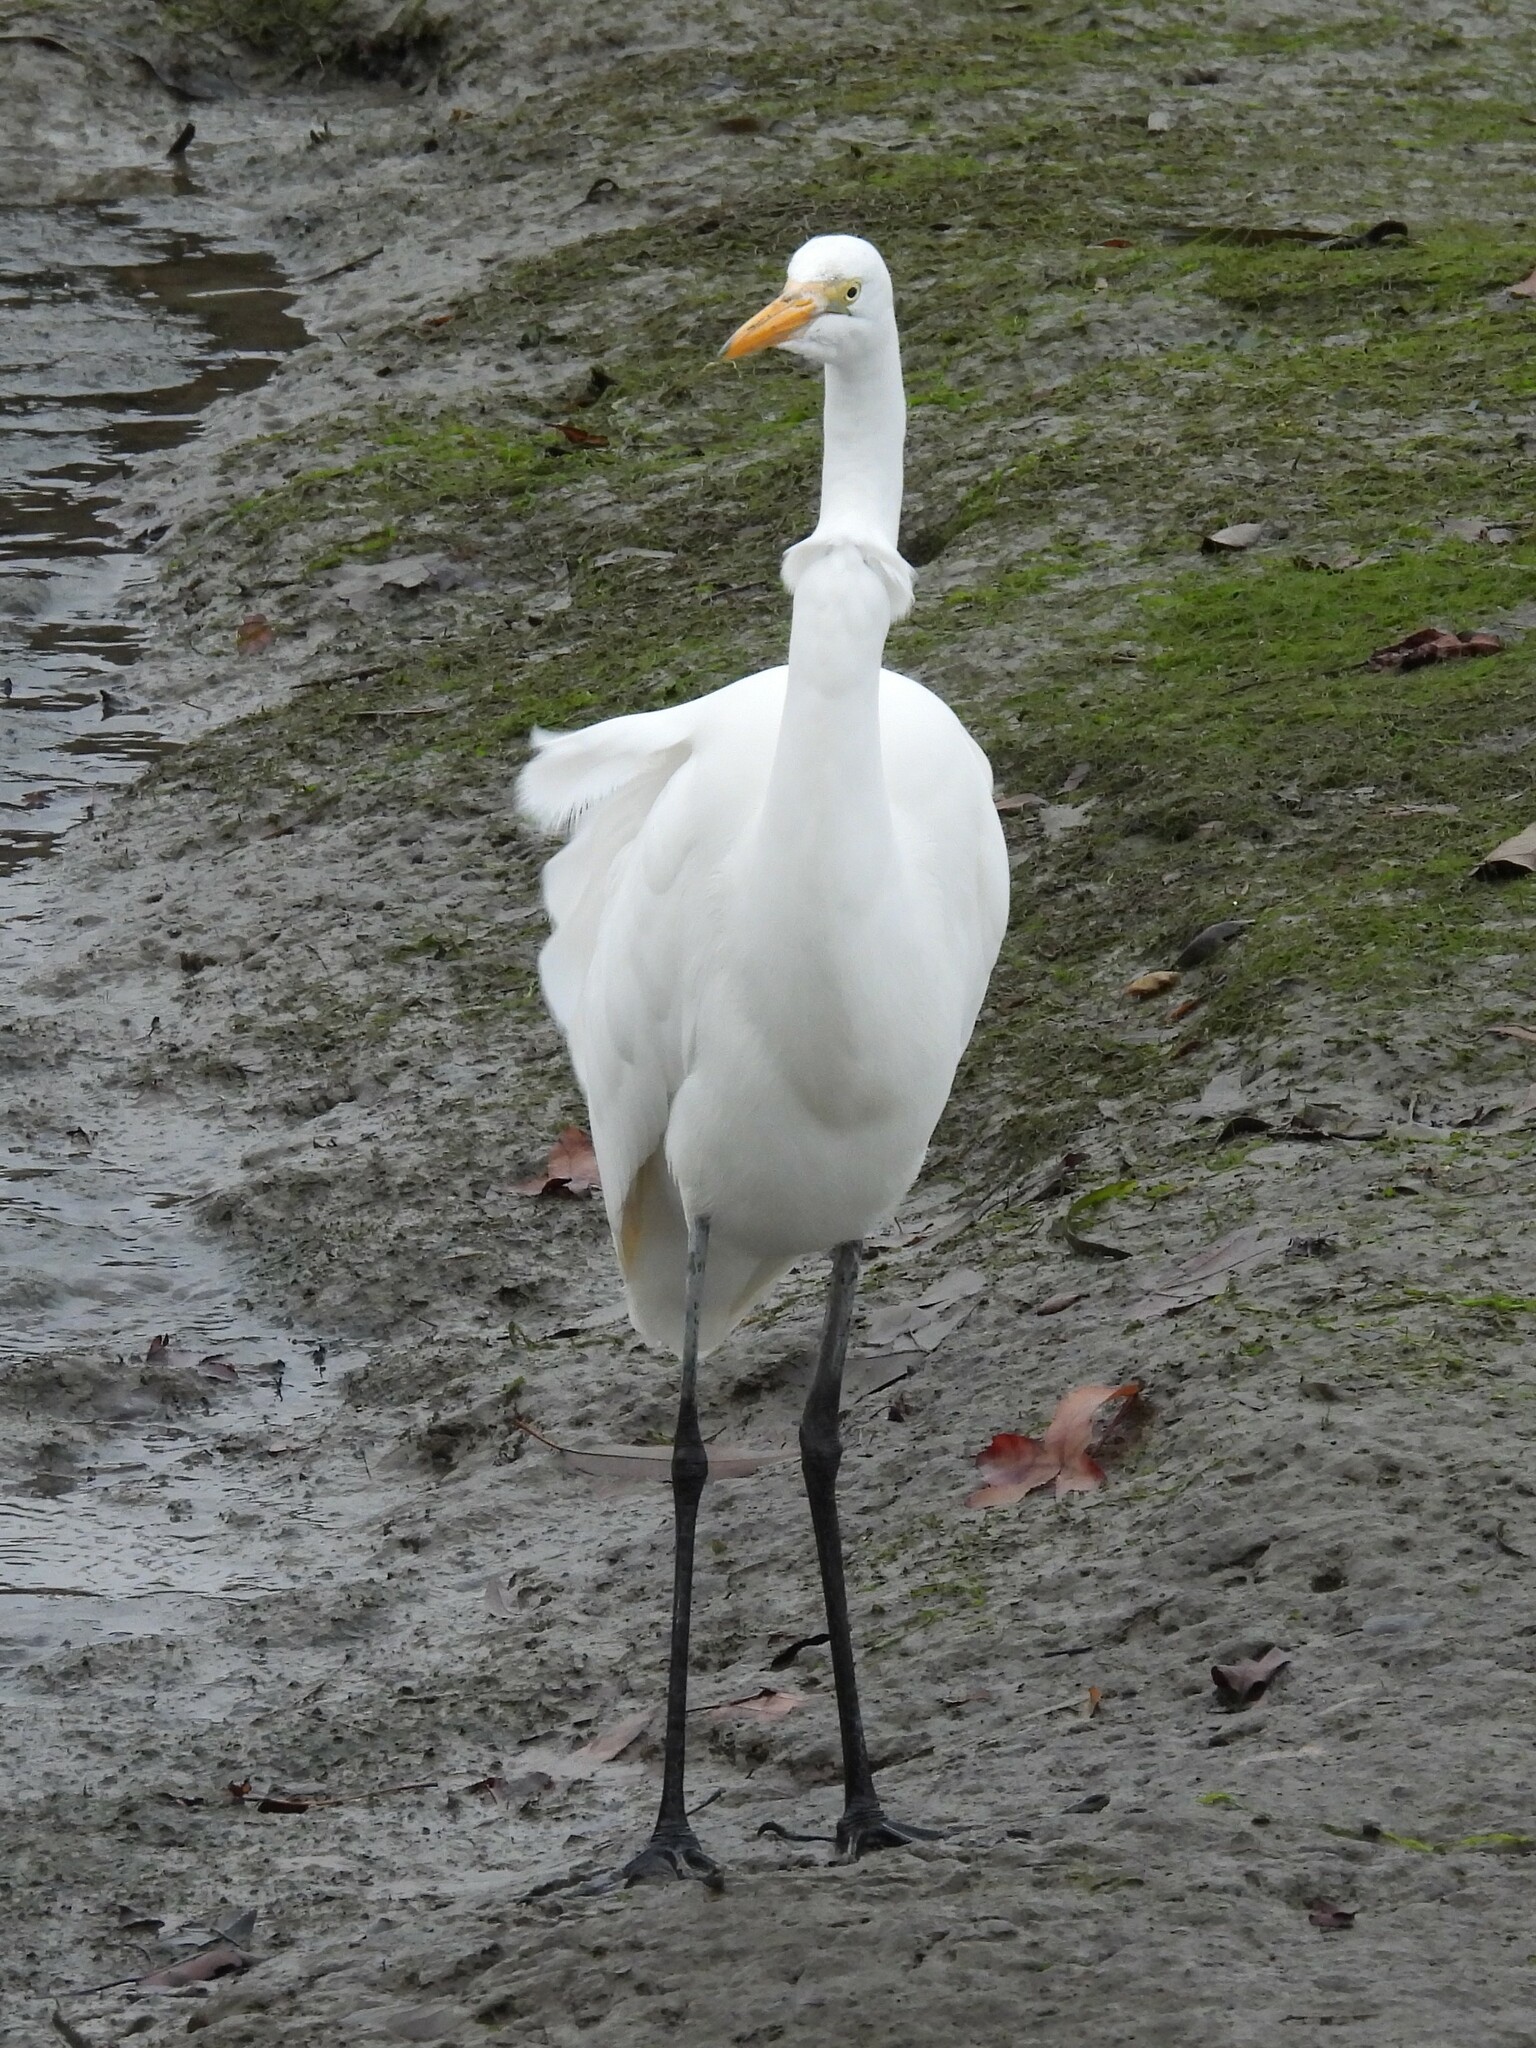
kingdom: Animalia
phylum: Chordata
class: Aves
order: Pelecaniformes
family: Ardeidae
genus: Ardea
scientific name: Ardea alba
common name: Great egret
